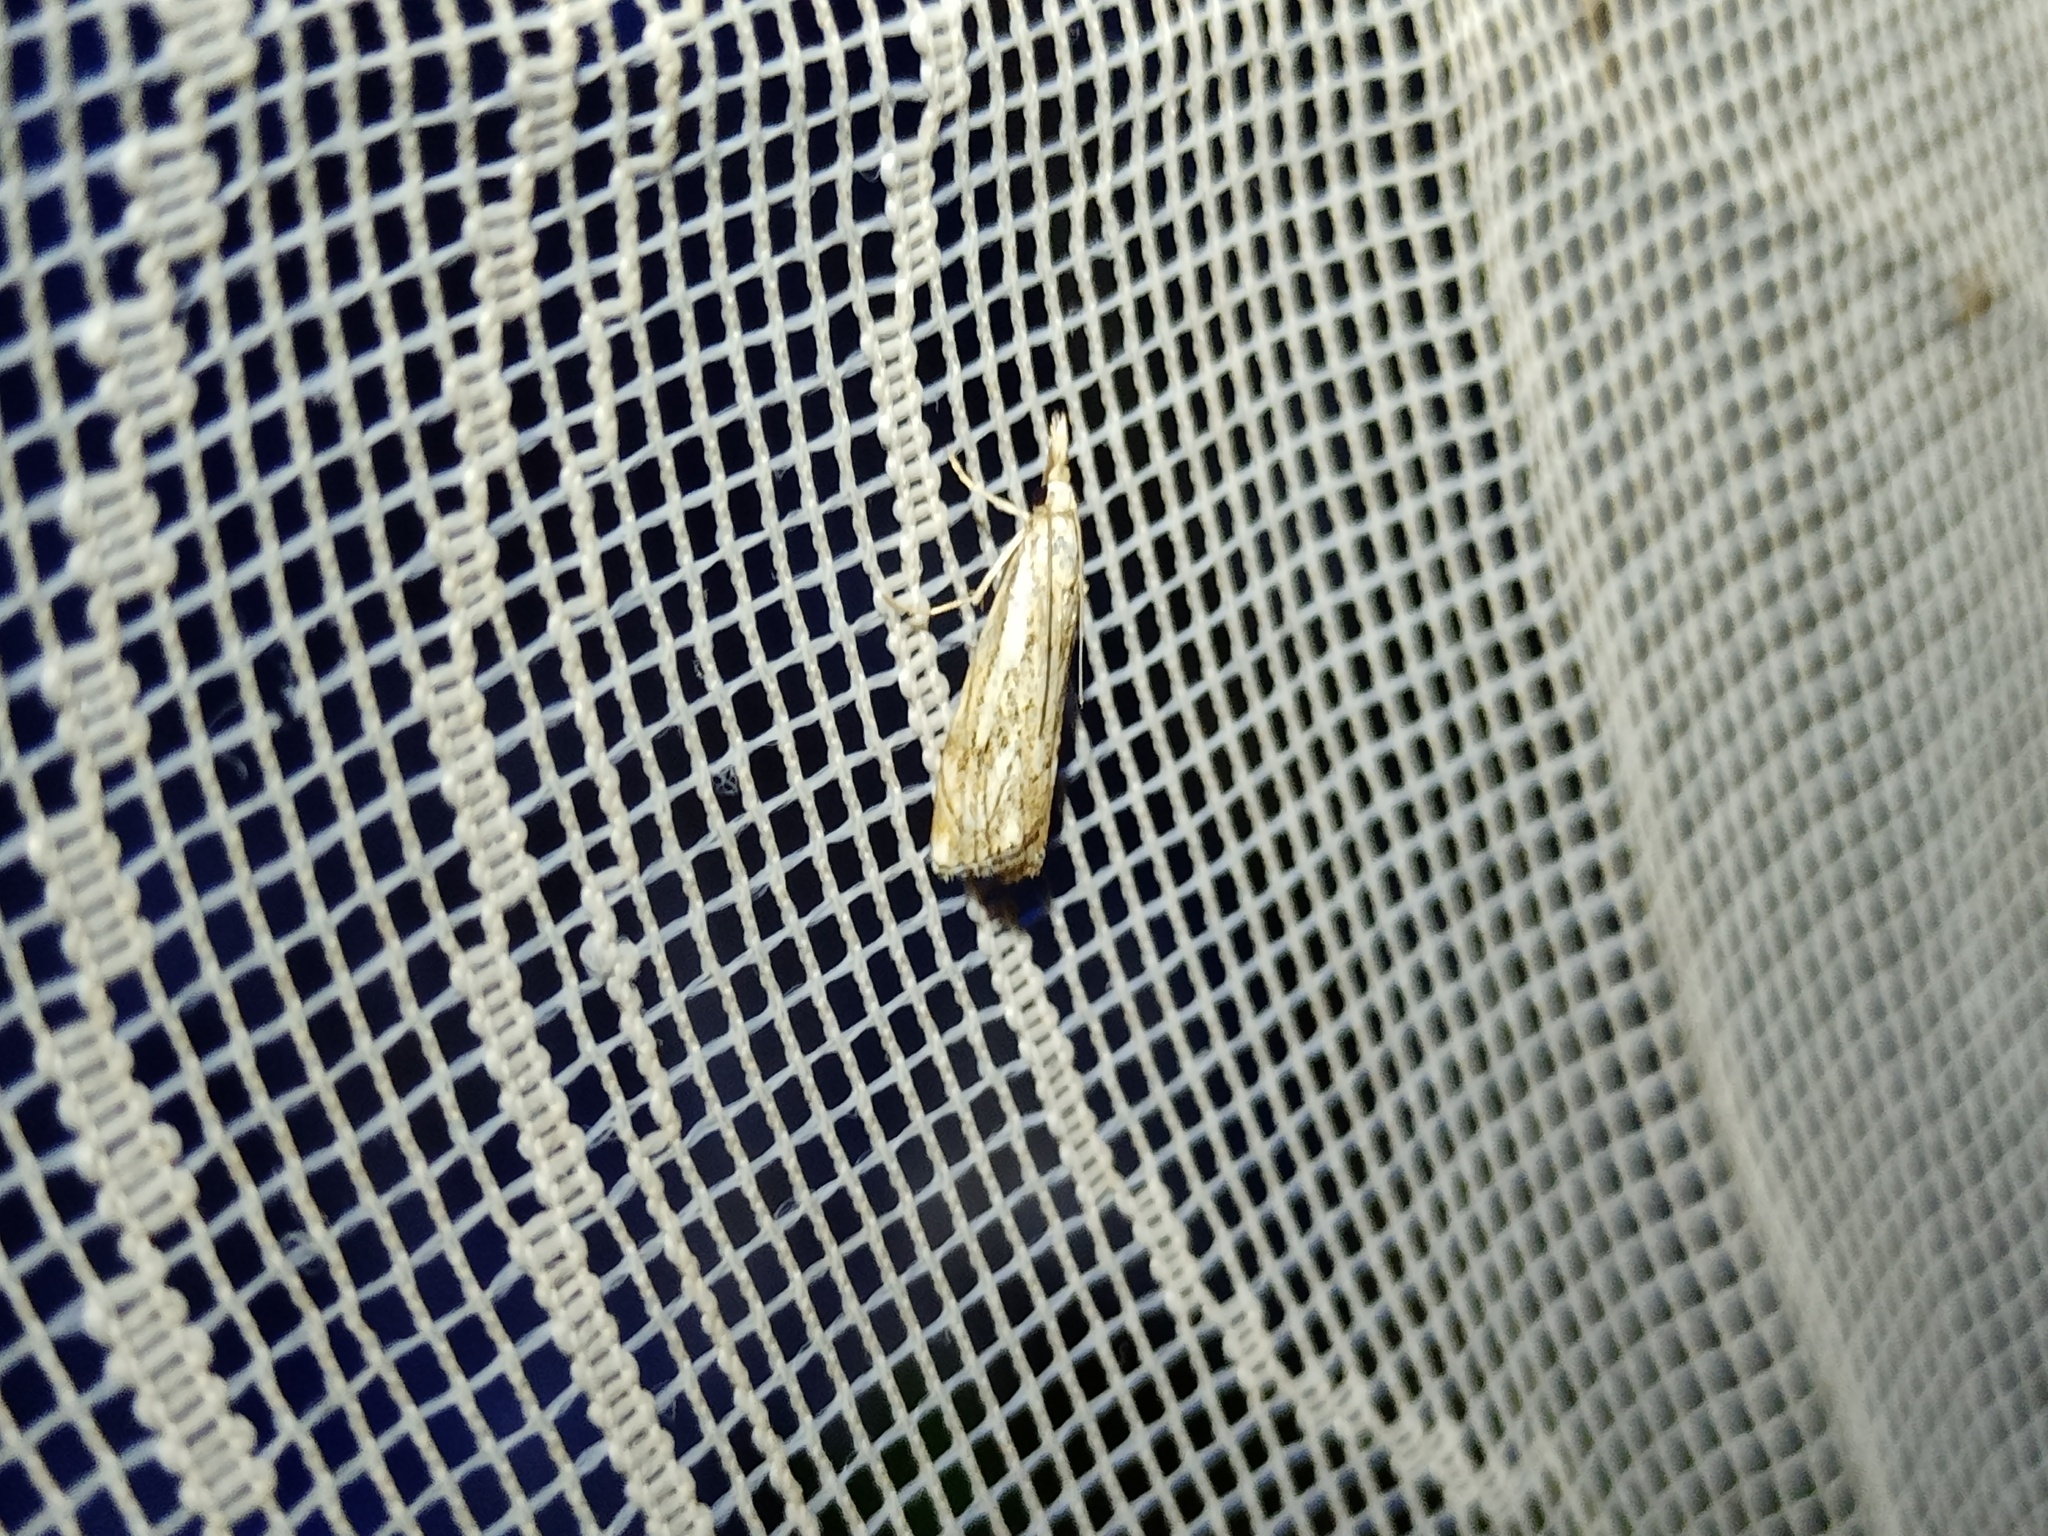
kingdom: Animalia
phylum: Arthropoda
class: Insecta
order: Lepidoptera
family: Crambidae
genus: Catoptria
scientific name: Catoptria falsella
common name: Chequered grass-veneer
